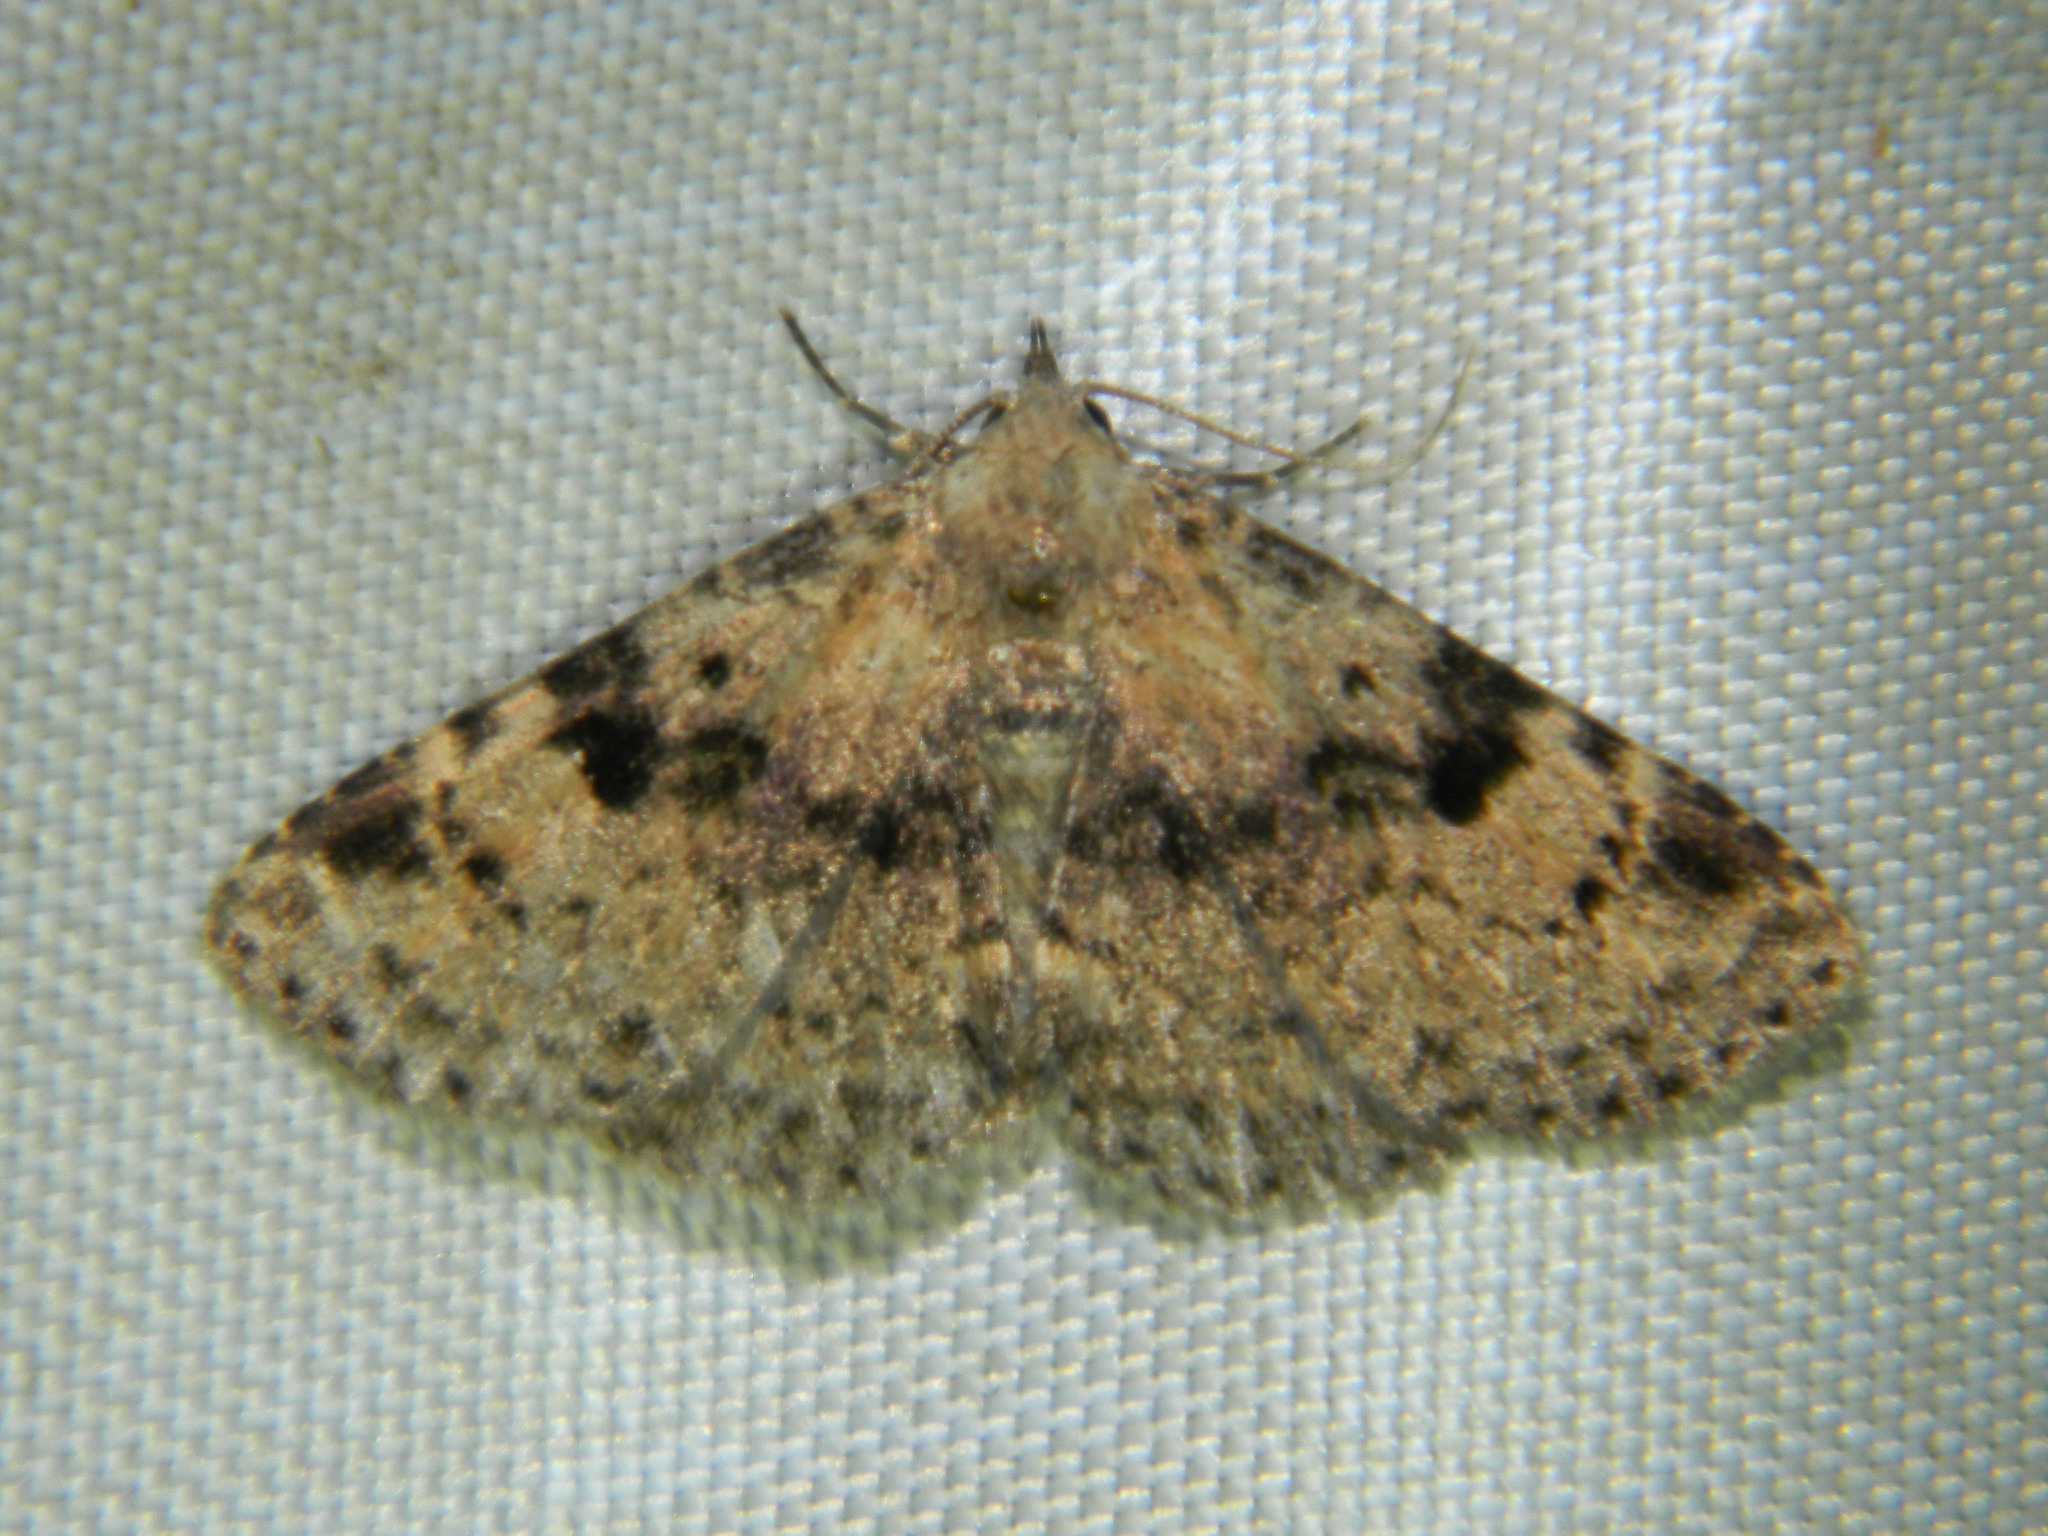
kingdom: Animalia
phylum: Arthropoda
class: Insecta
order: Lepidoptera
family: Erebidae
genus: Metalectra
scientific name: Metalectra quadrisignata
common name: Four-spotted fungus moth
